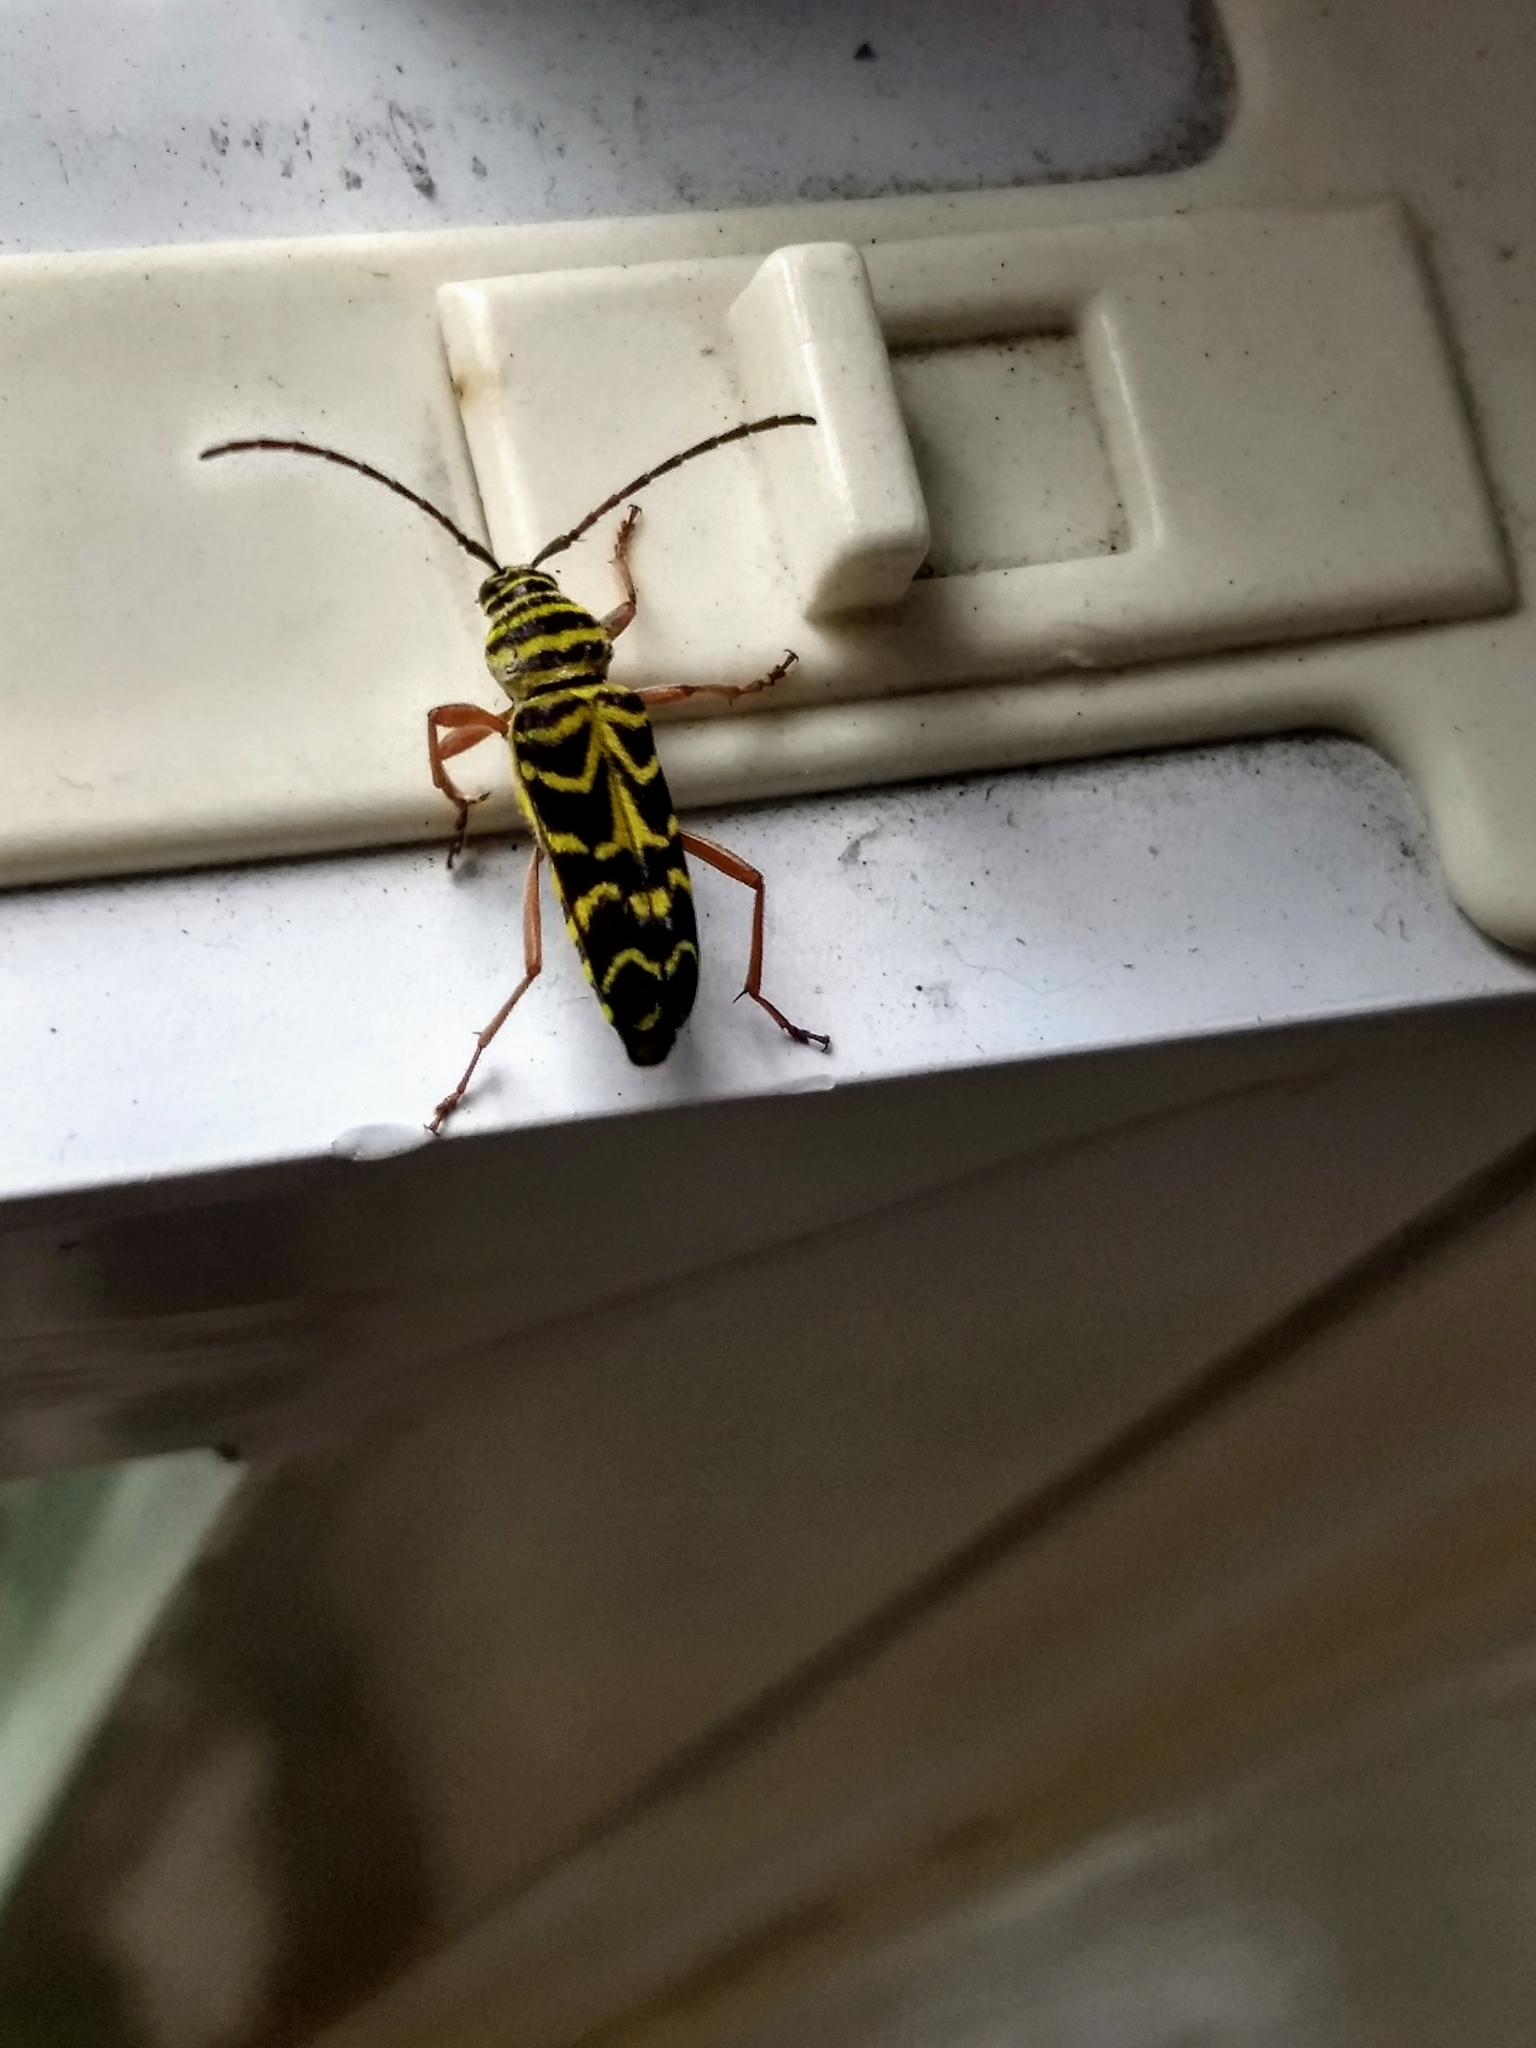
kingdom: Animalia
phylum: Arthropoda
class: Insecta
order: Coleoptera
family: Cerambycidae
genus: Megacyllene
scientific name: Megacyllene robiniae
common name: Locust borer
